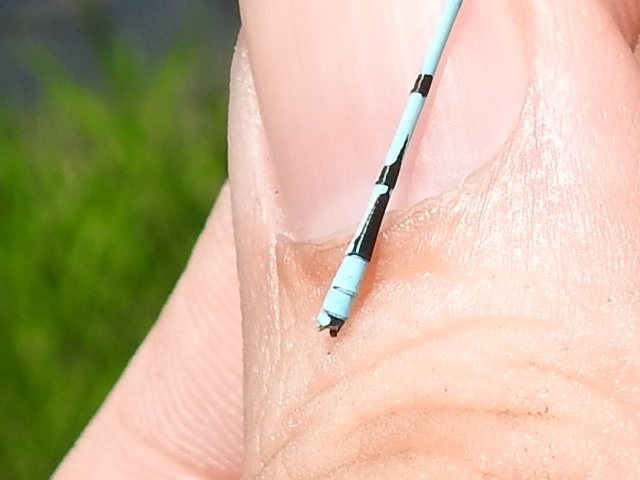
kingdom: Animalia
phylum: Arthropoda
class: Insecta
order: Odonata
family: Coenagrionidae
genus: Enallagma
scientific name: Enallagma doubledayi
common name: Atlantic bluet
